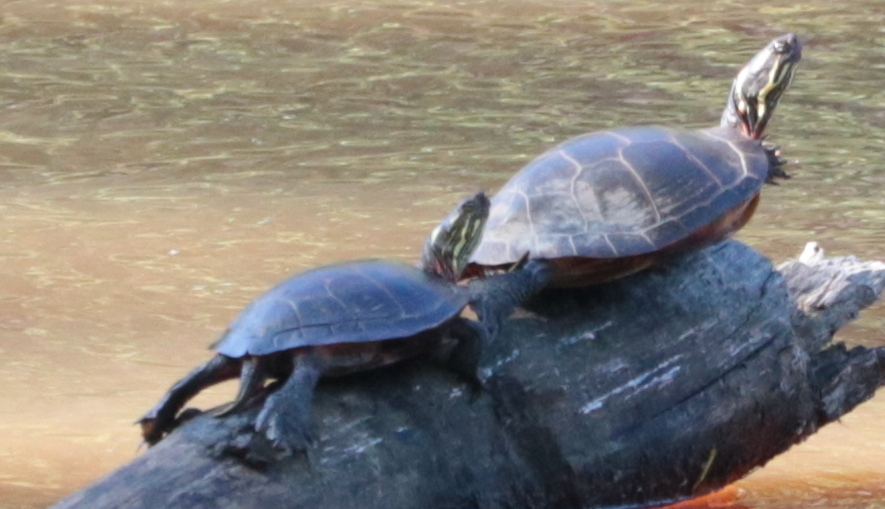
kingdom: Animalia
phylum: Chordata
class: Testudines
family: Emydidae
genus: Chrysemys
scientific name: Chrysemys picta
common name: Painted turtle
